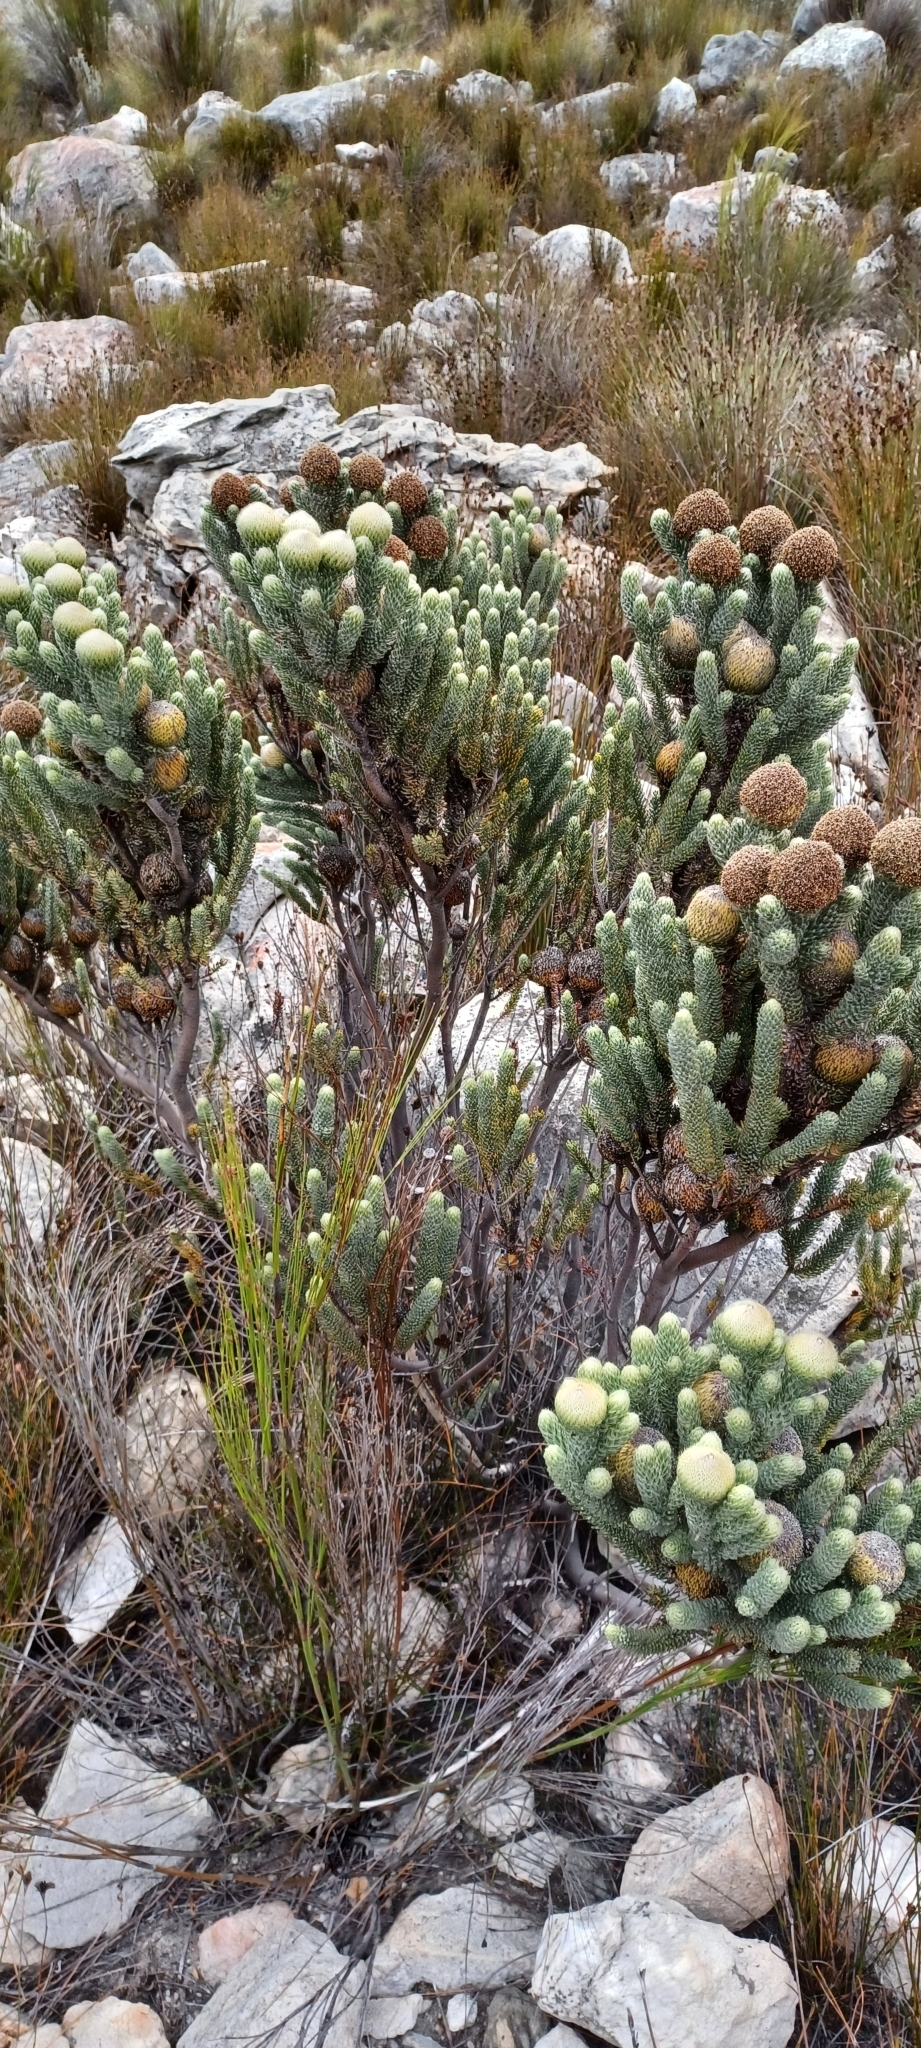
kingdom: Plantae
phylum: Tracheophyta
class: Magnoliopsida
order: Bruniales
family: Bruniaceae
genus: Brunia
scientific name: Brunia macrocephala
